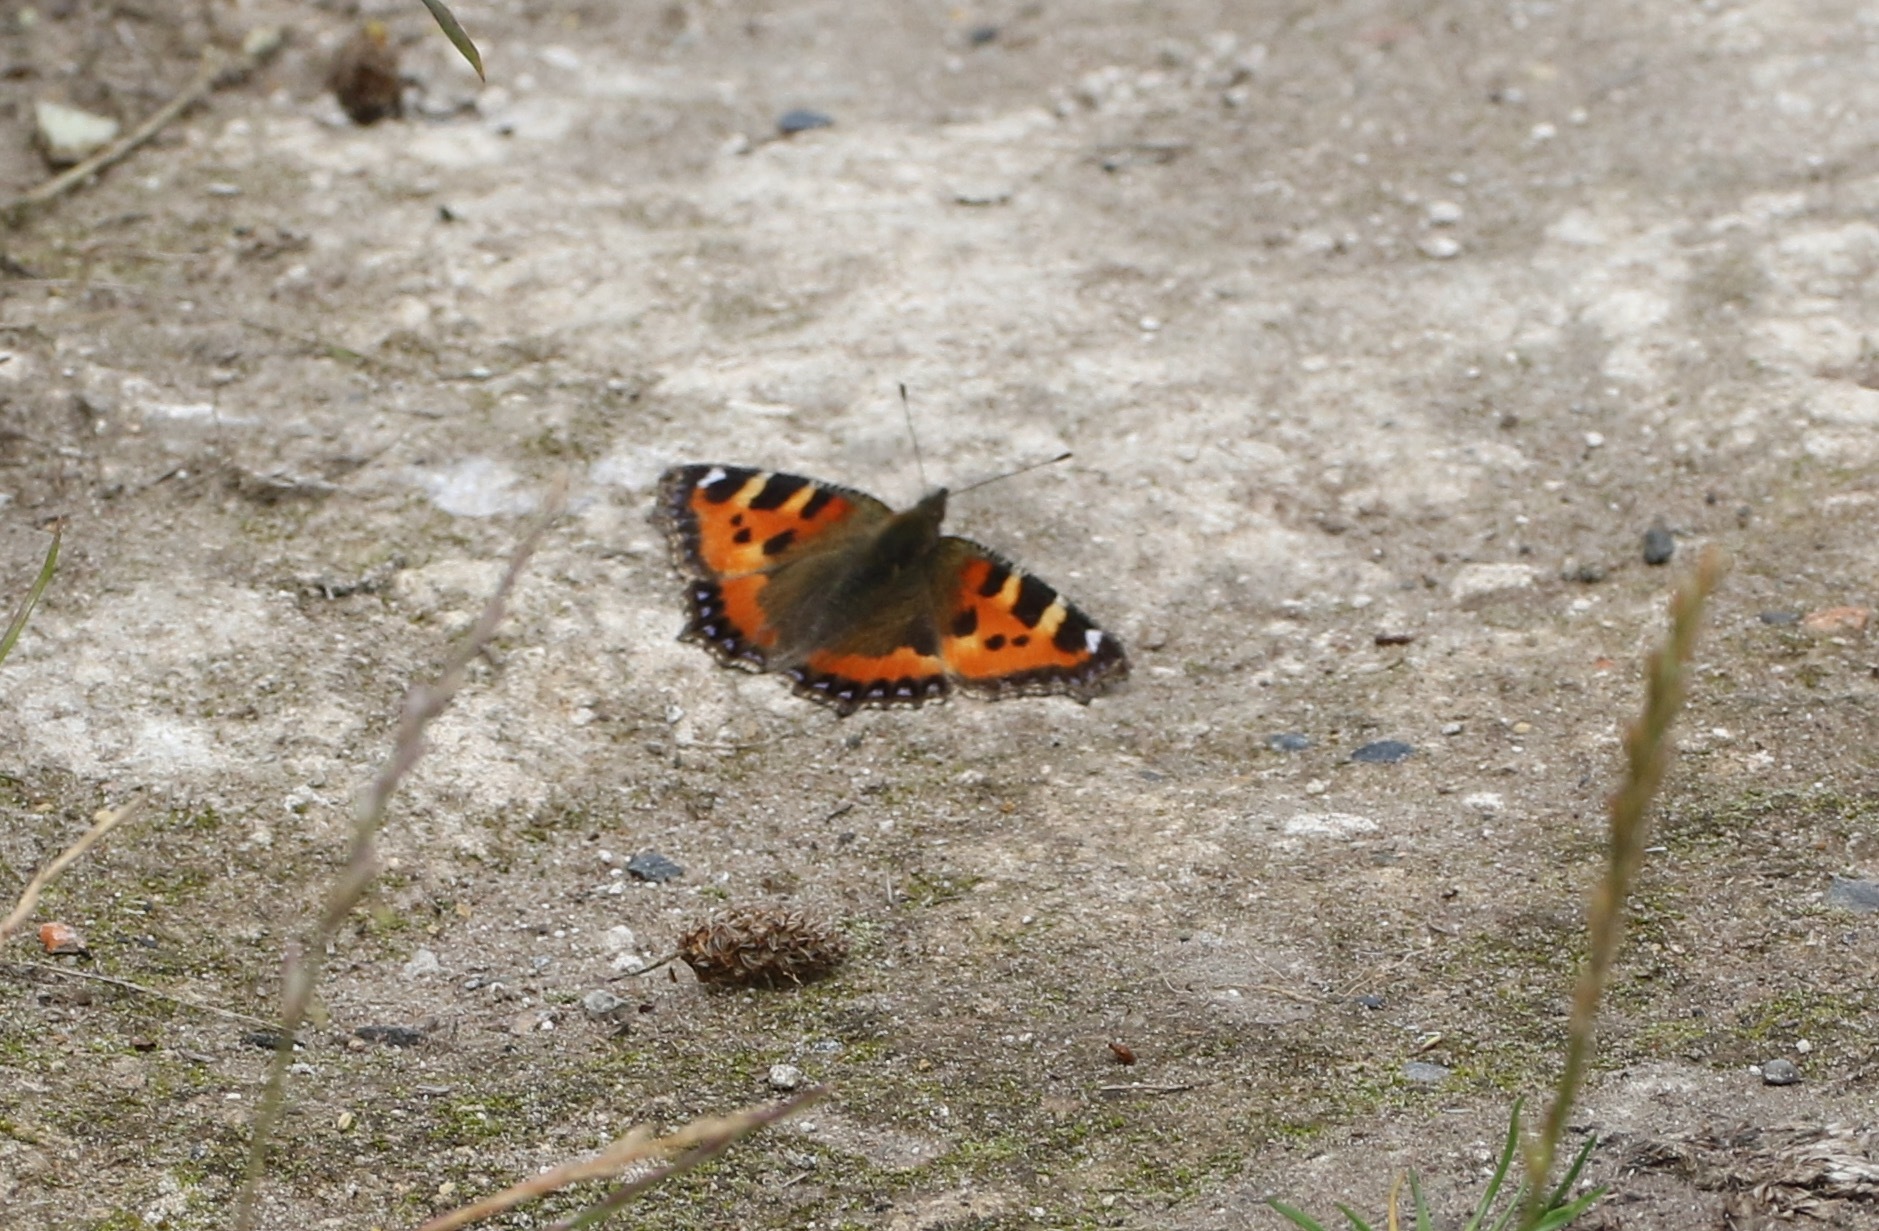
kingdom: Animalia
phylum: Arthropoda
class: Insecta
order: Lepidoptera
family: Nymphalidae
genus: Aglais
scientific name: Aglais urticae
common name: Small tortoiseshell
